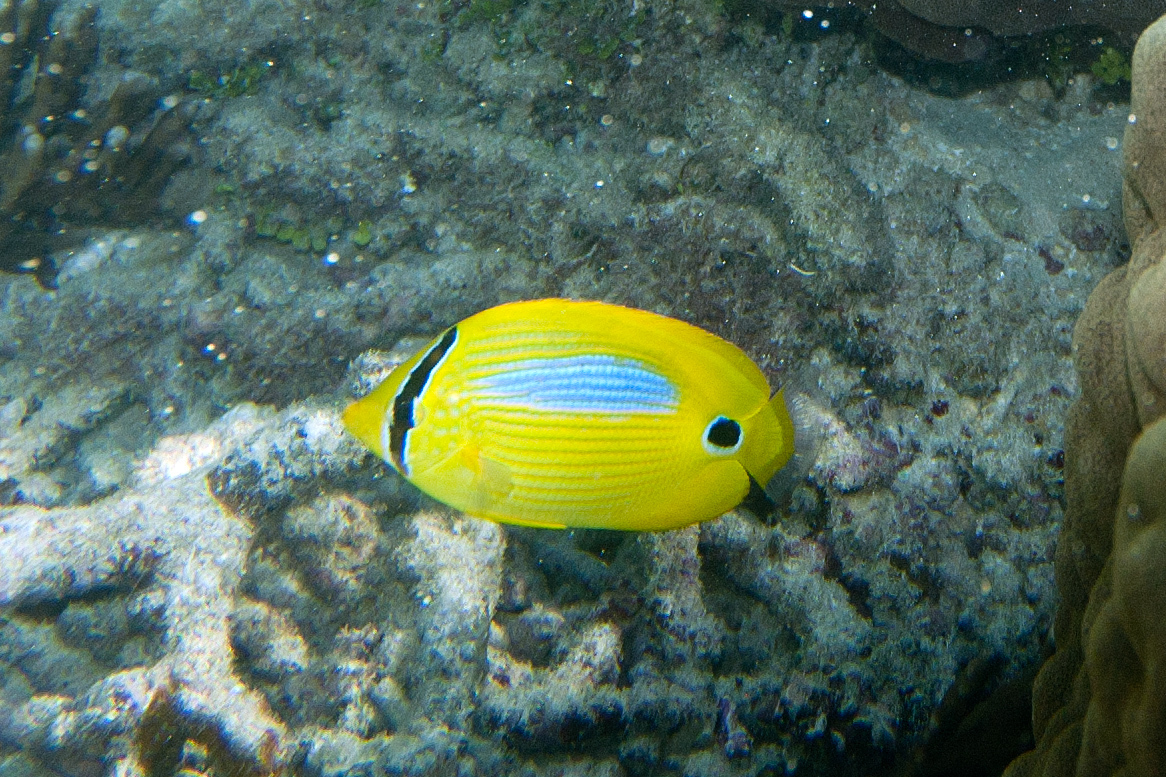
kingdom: Animalia
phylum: Chordata
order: Perciformes
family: Chaetodontidae
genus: Chaetodon
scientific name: Chaetodon plebeius
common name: Bluespot butterflyfish
